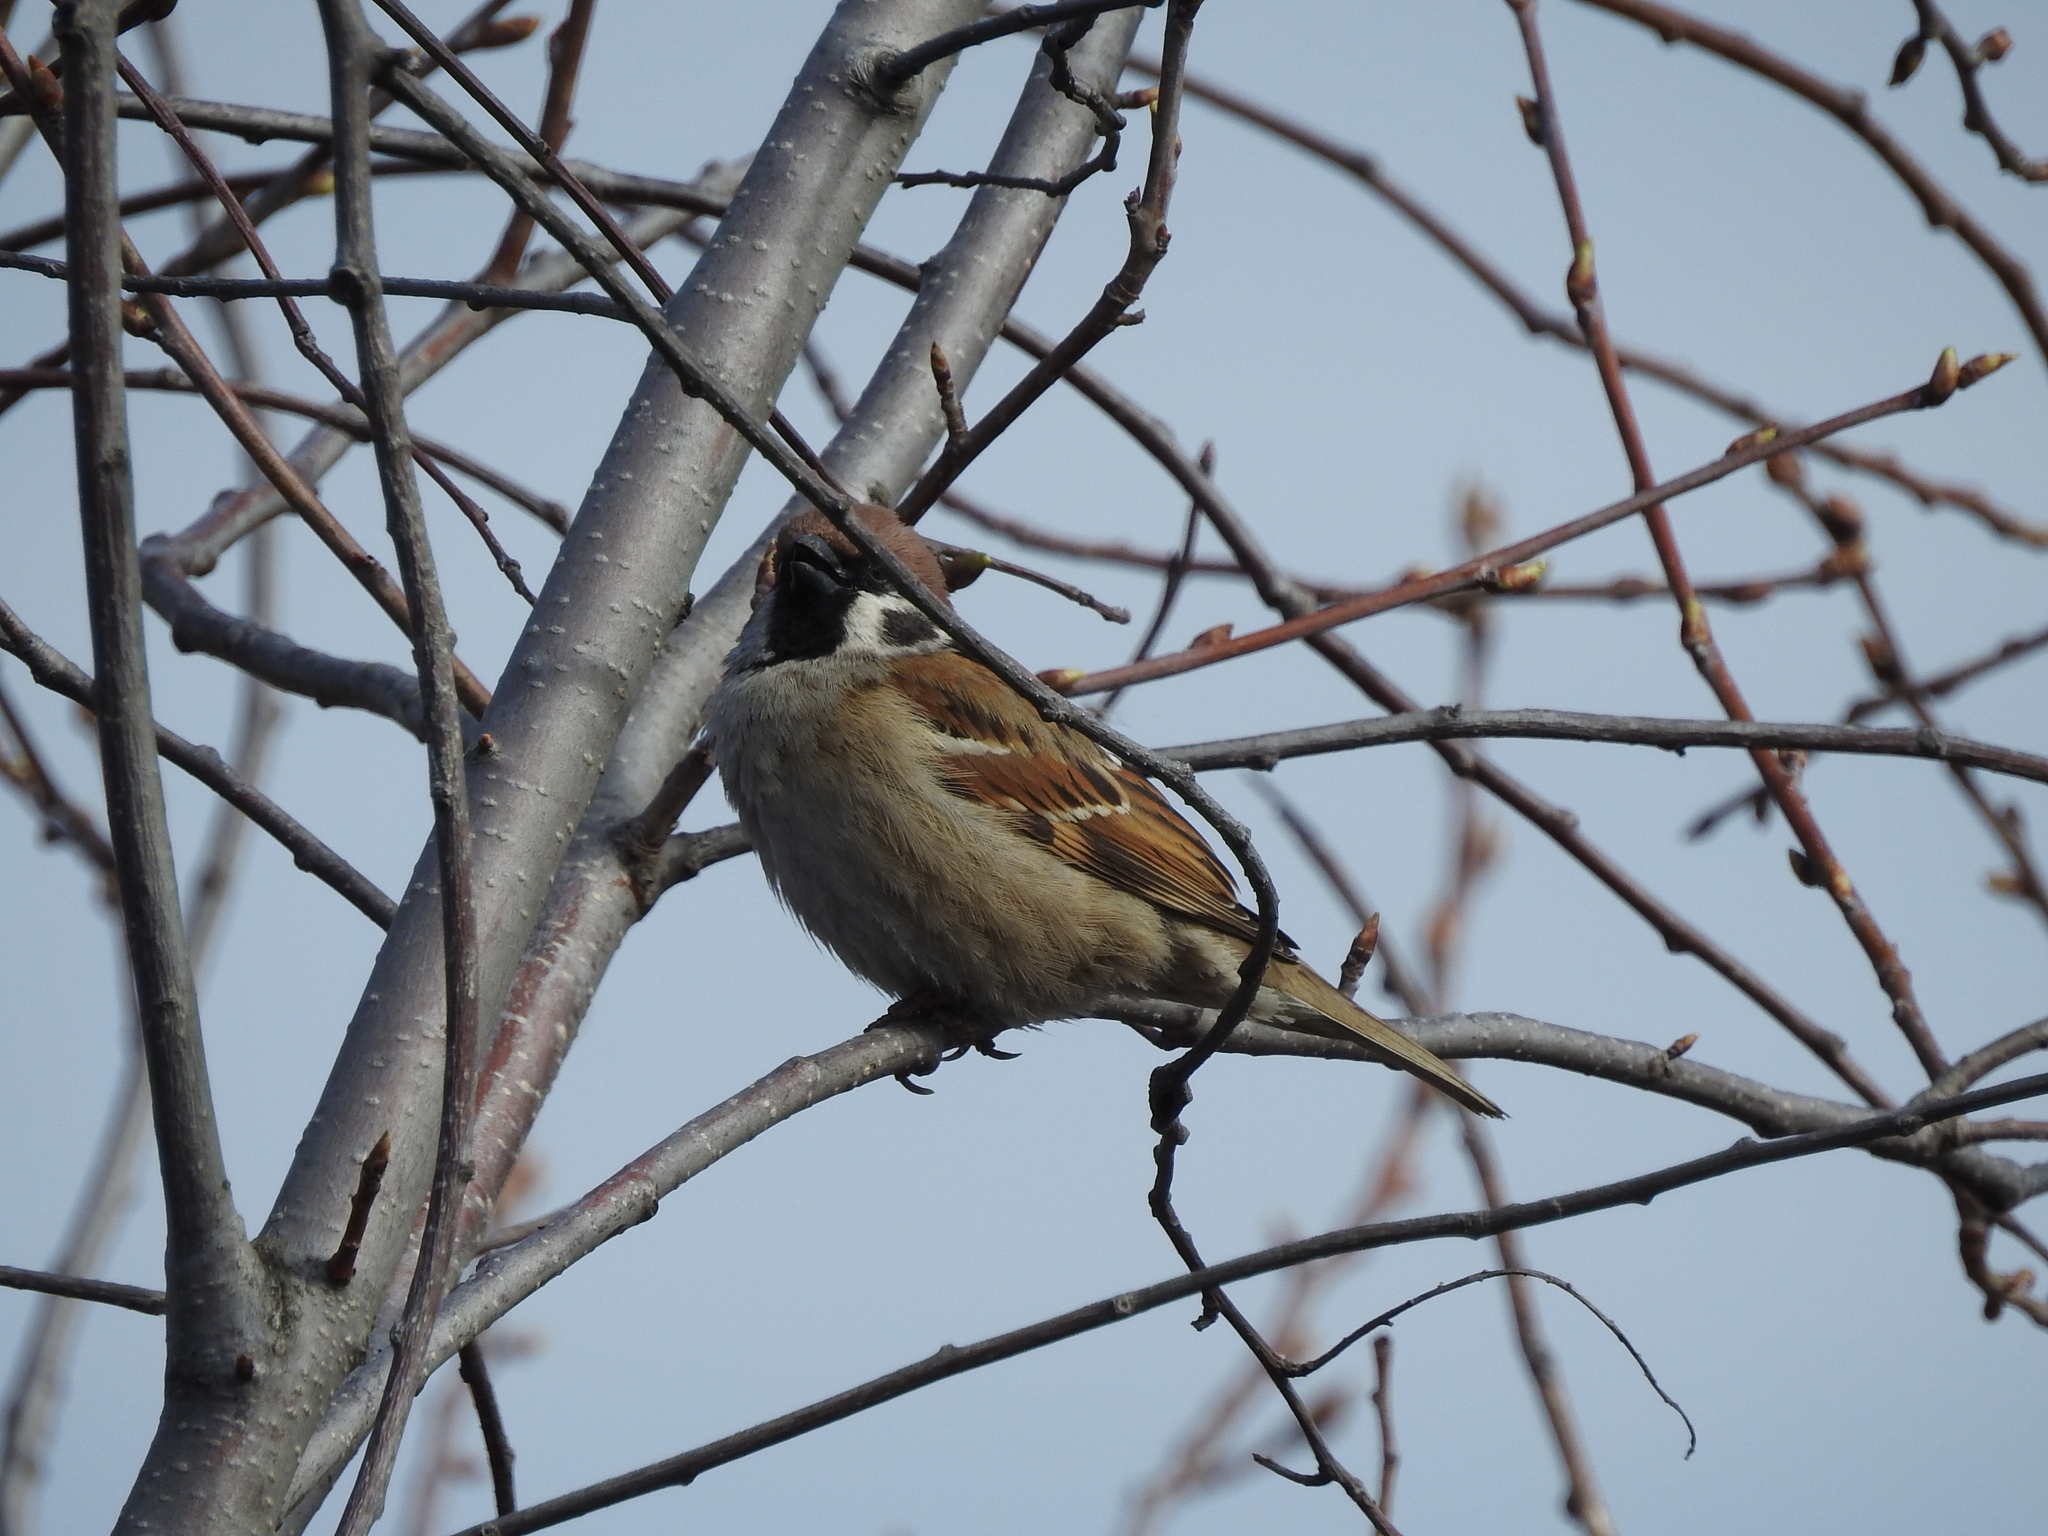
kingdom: Animalia
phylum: Chordata
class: Aves
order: Passeriformes
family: Passeridae
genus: Passer
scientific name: Passer montanus
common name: Eurasian tree sparrow
